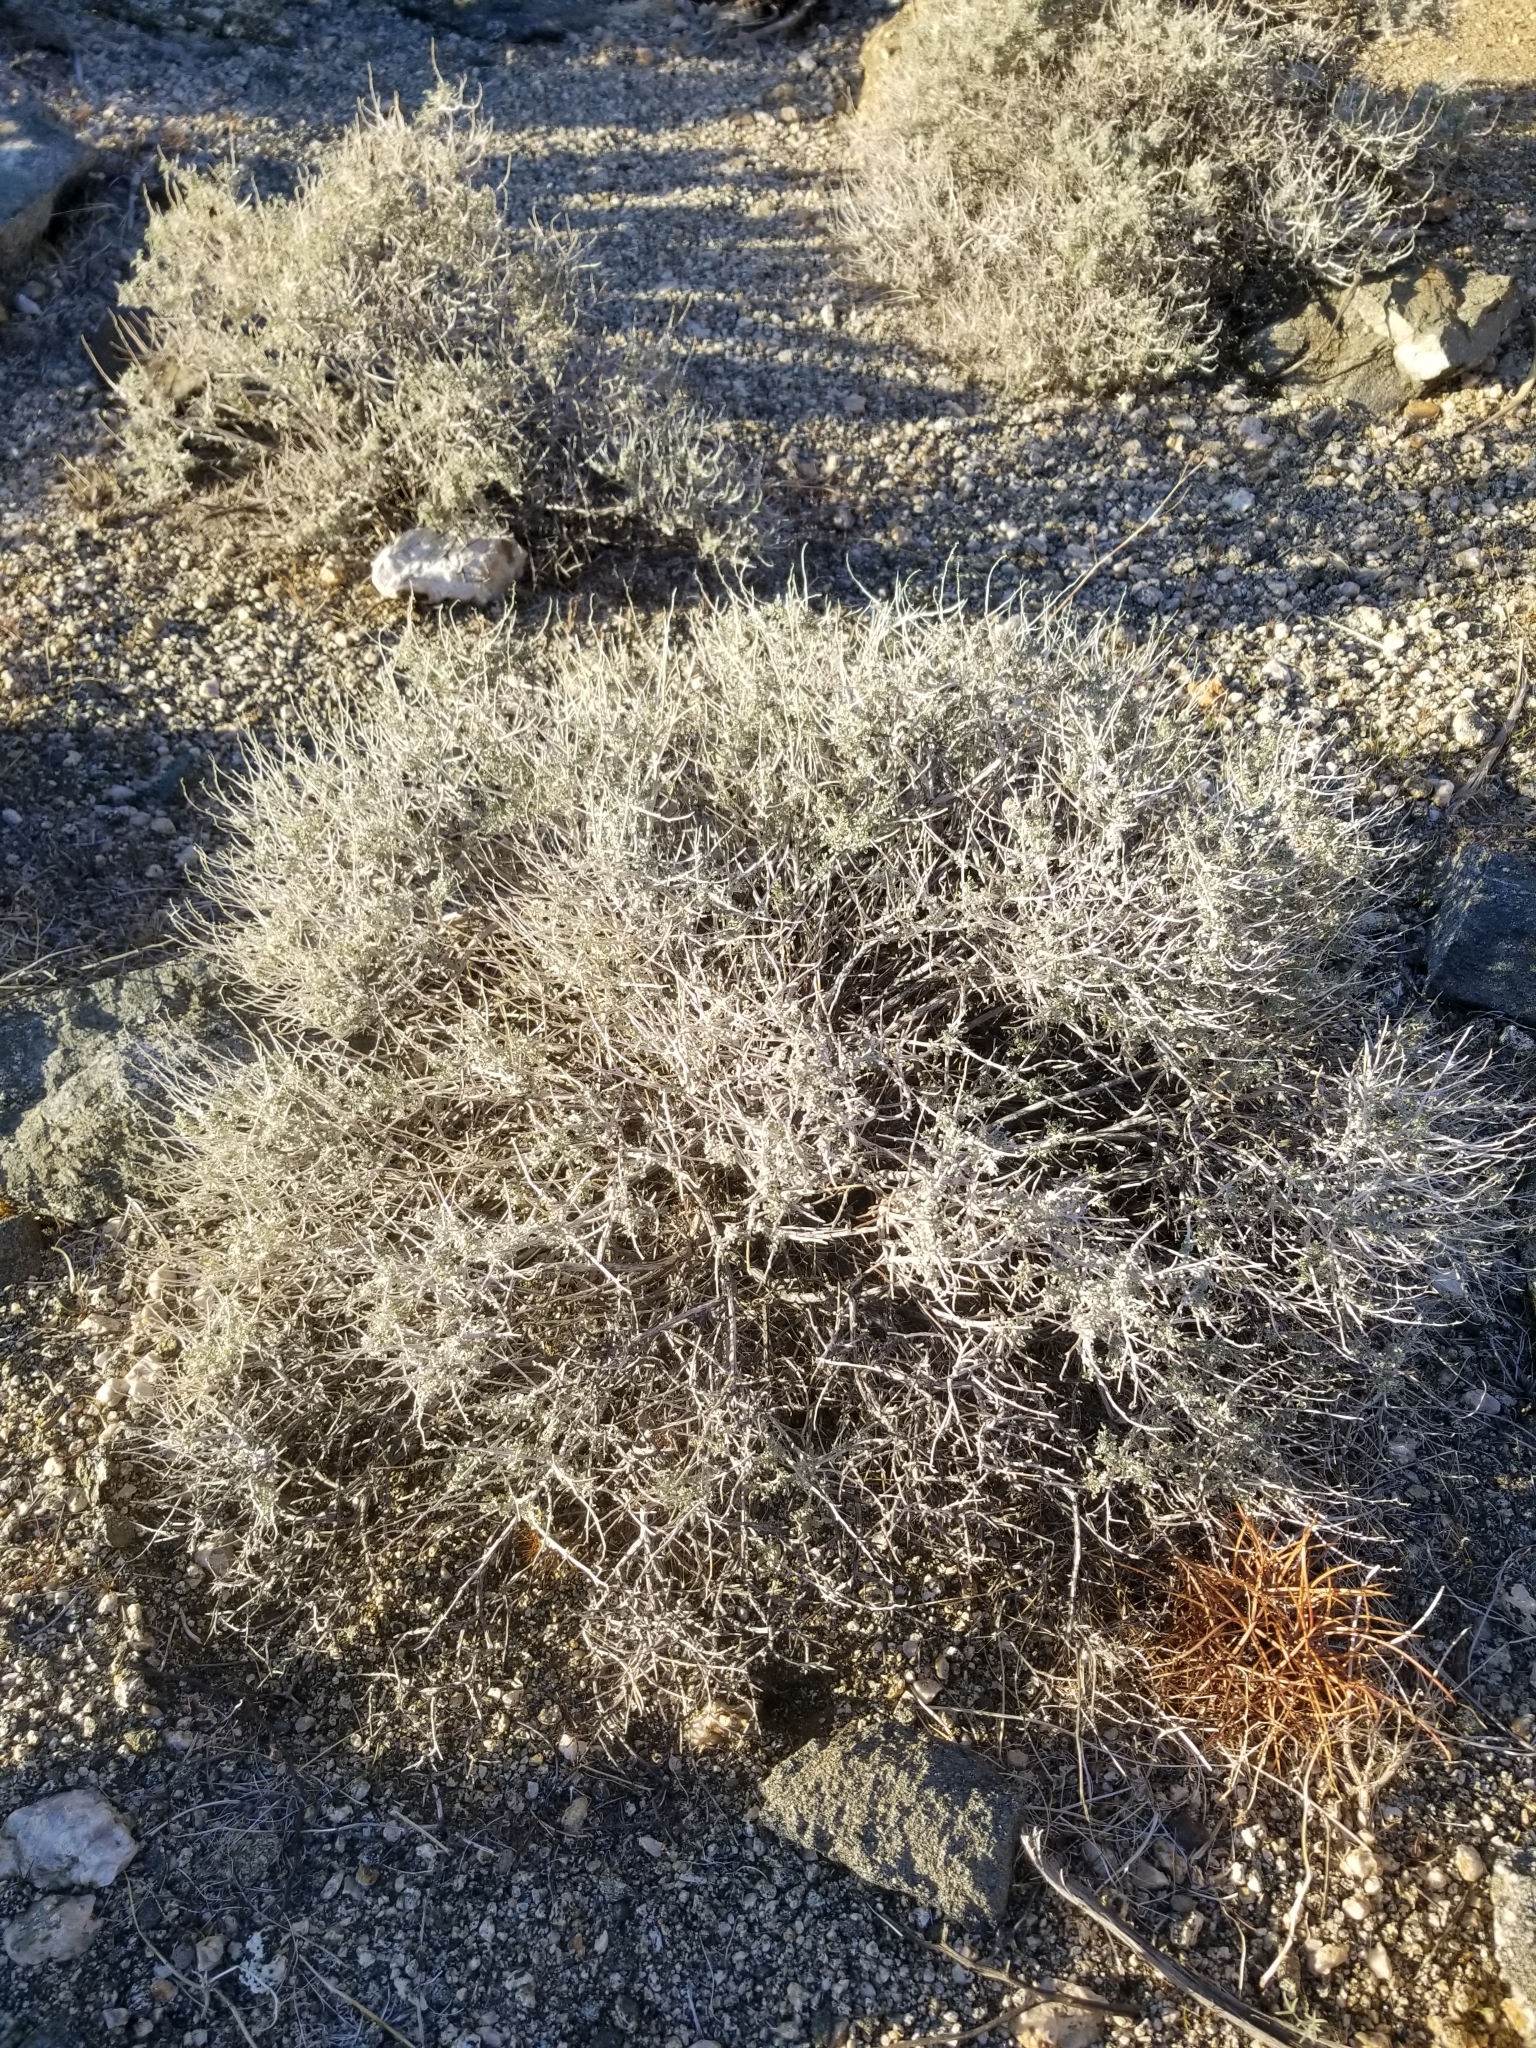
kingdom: Plantae
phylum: Tracheophyta
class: Magnoliopsida
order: Asterales
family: Asteraceae
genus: Ambrosia
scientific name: Ambrosia dumosa
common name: Bur-sage
